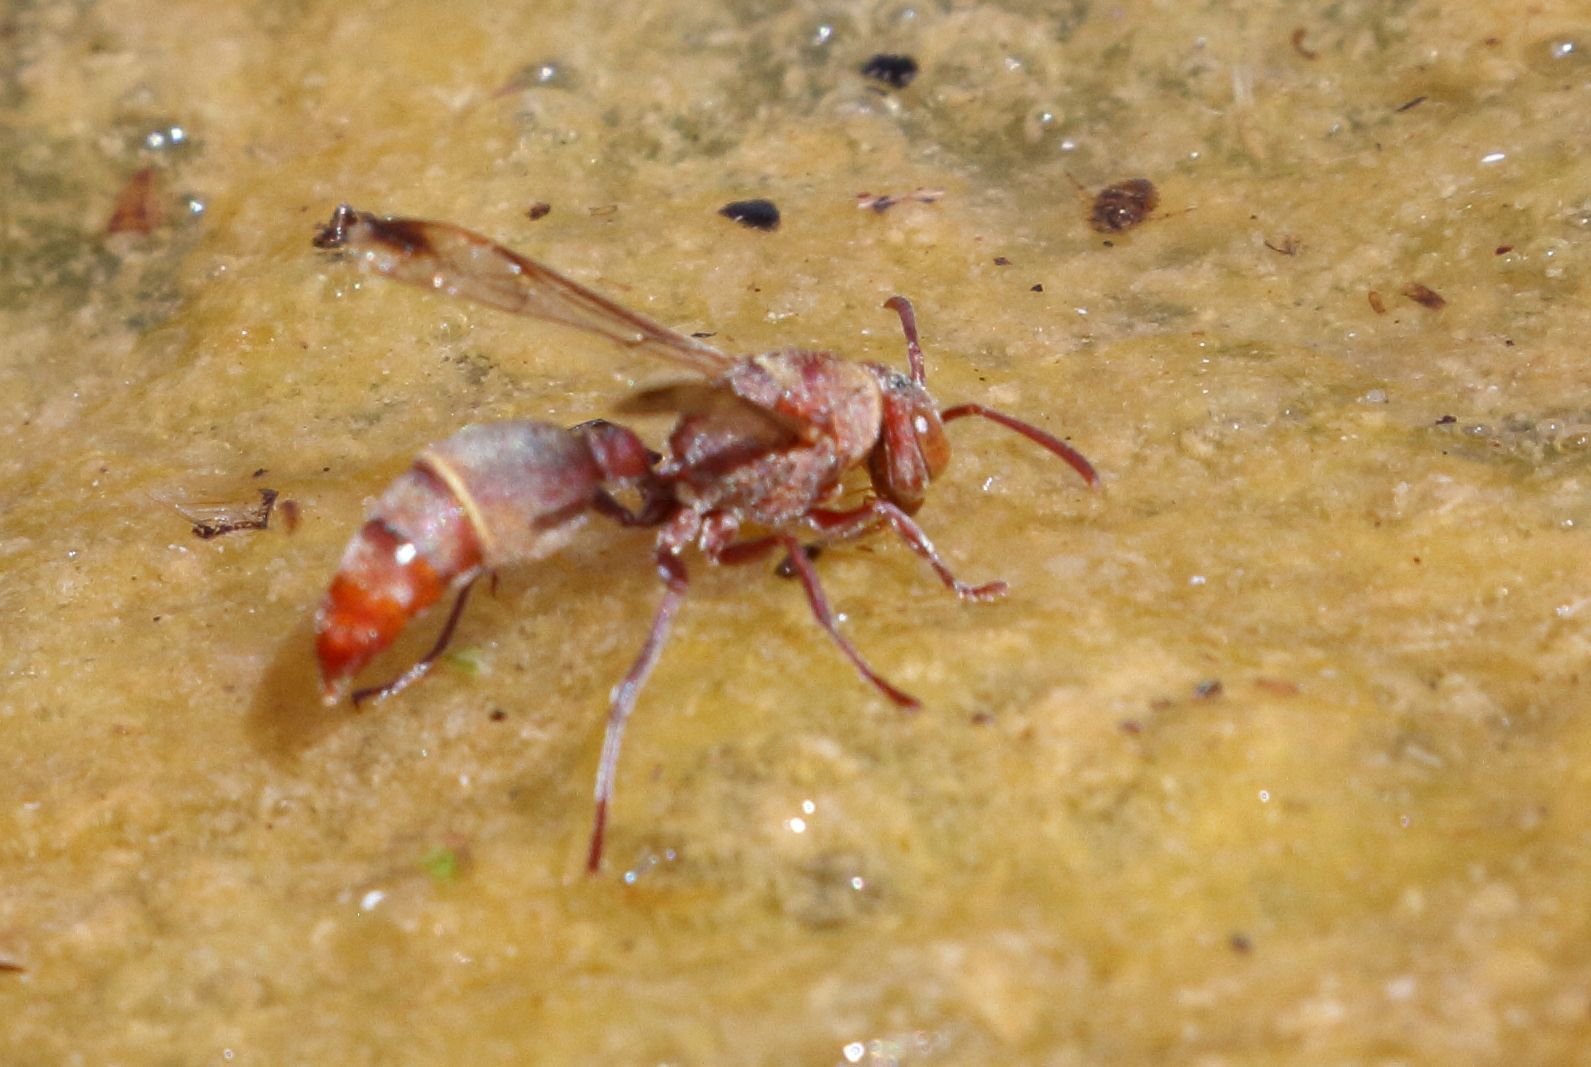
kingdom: Animalia
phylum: Arthropoda
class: Insecta
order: Hymenoptera
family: Vespidae
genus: Ropalidia
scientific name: Ropalidia distigma
